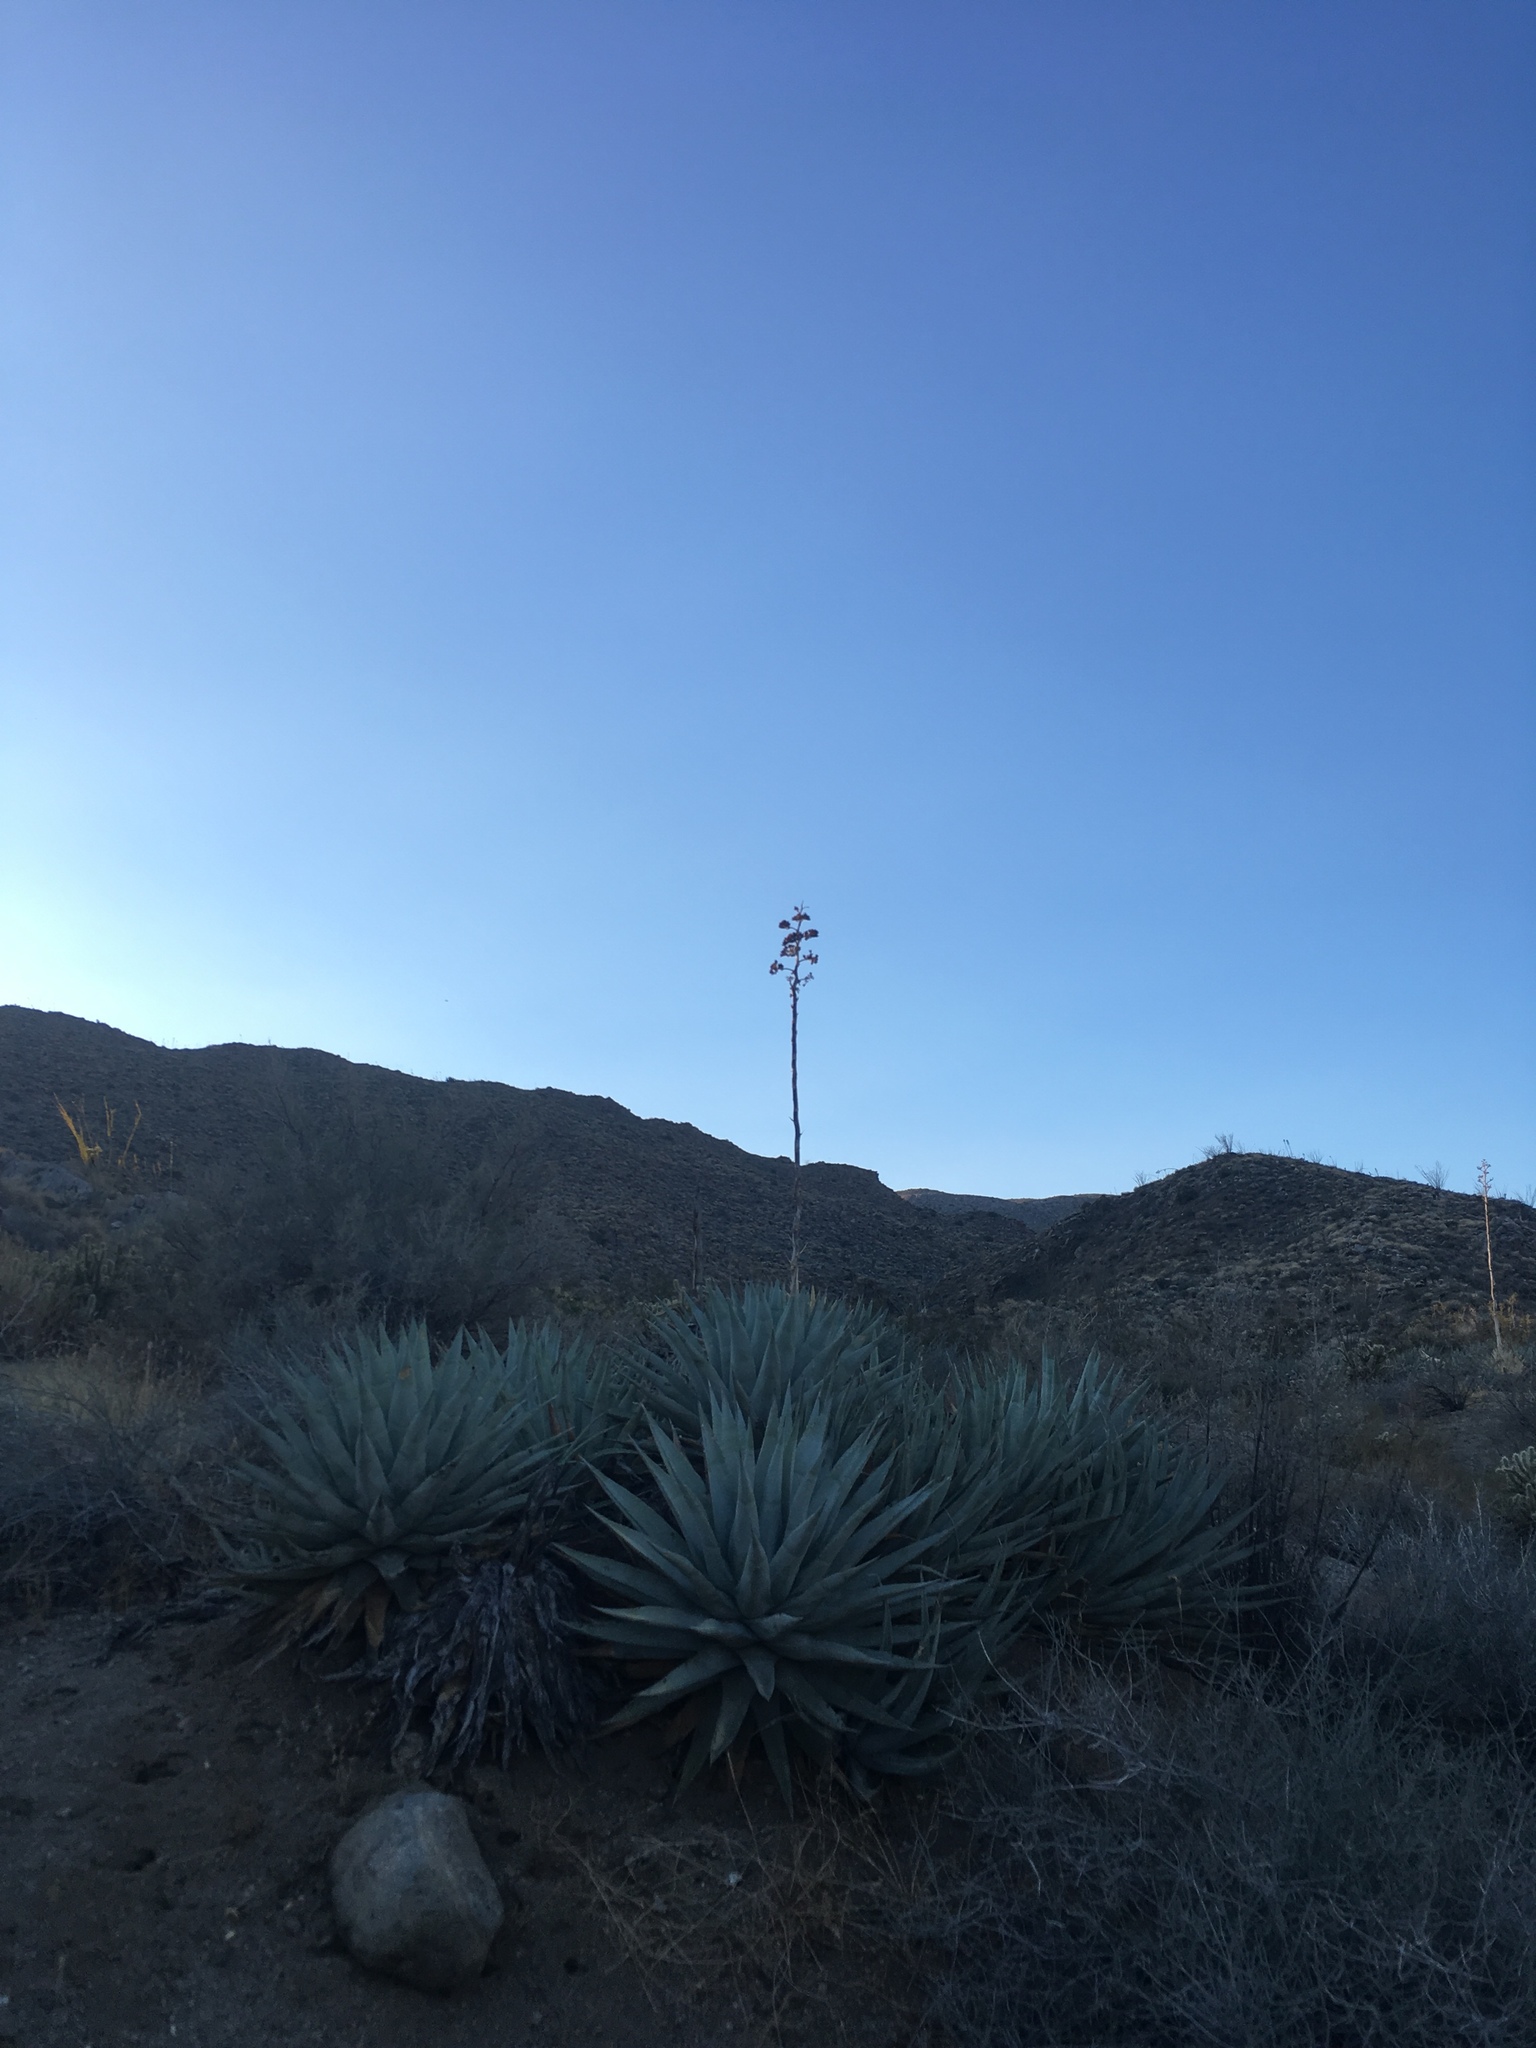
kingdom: Plantae
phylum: Tracheophyta
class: Liliopsida
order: Asparagales
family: Asparagaceae
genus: Agave
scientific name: Agave deserti
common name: Desert agave
